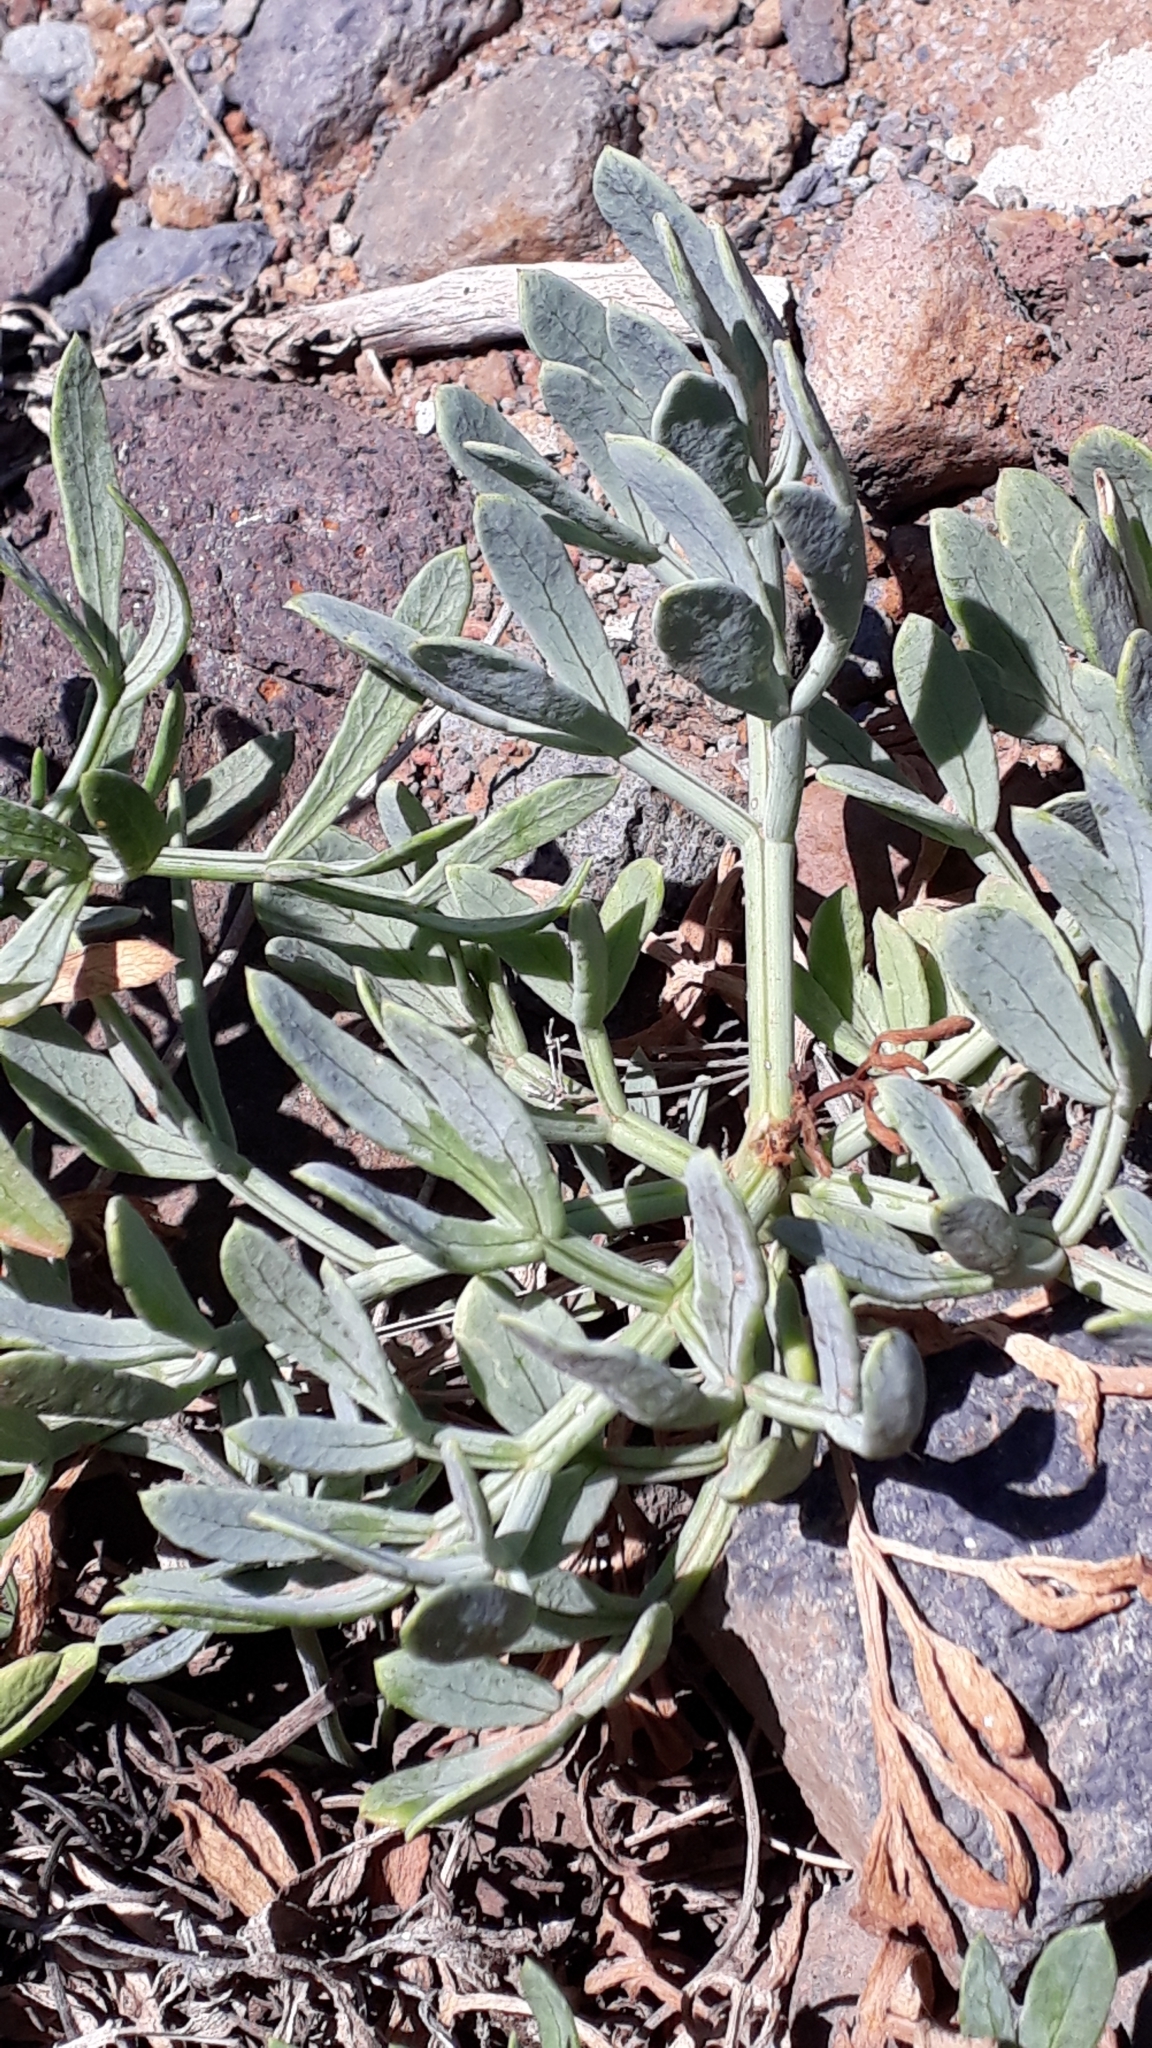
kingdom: Plantae
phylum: Tracheophyta
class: Magnoliopsida
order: Apiales
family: Apiaceae
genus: Crithmum
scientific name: Crithmum maritimum
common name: Rock samphire
